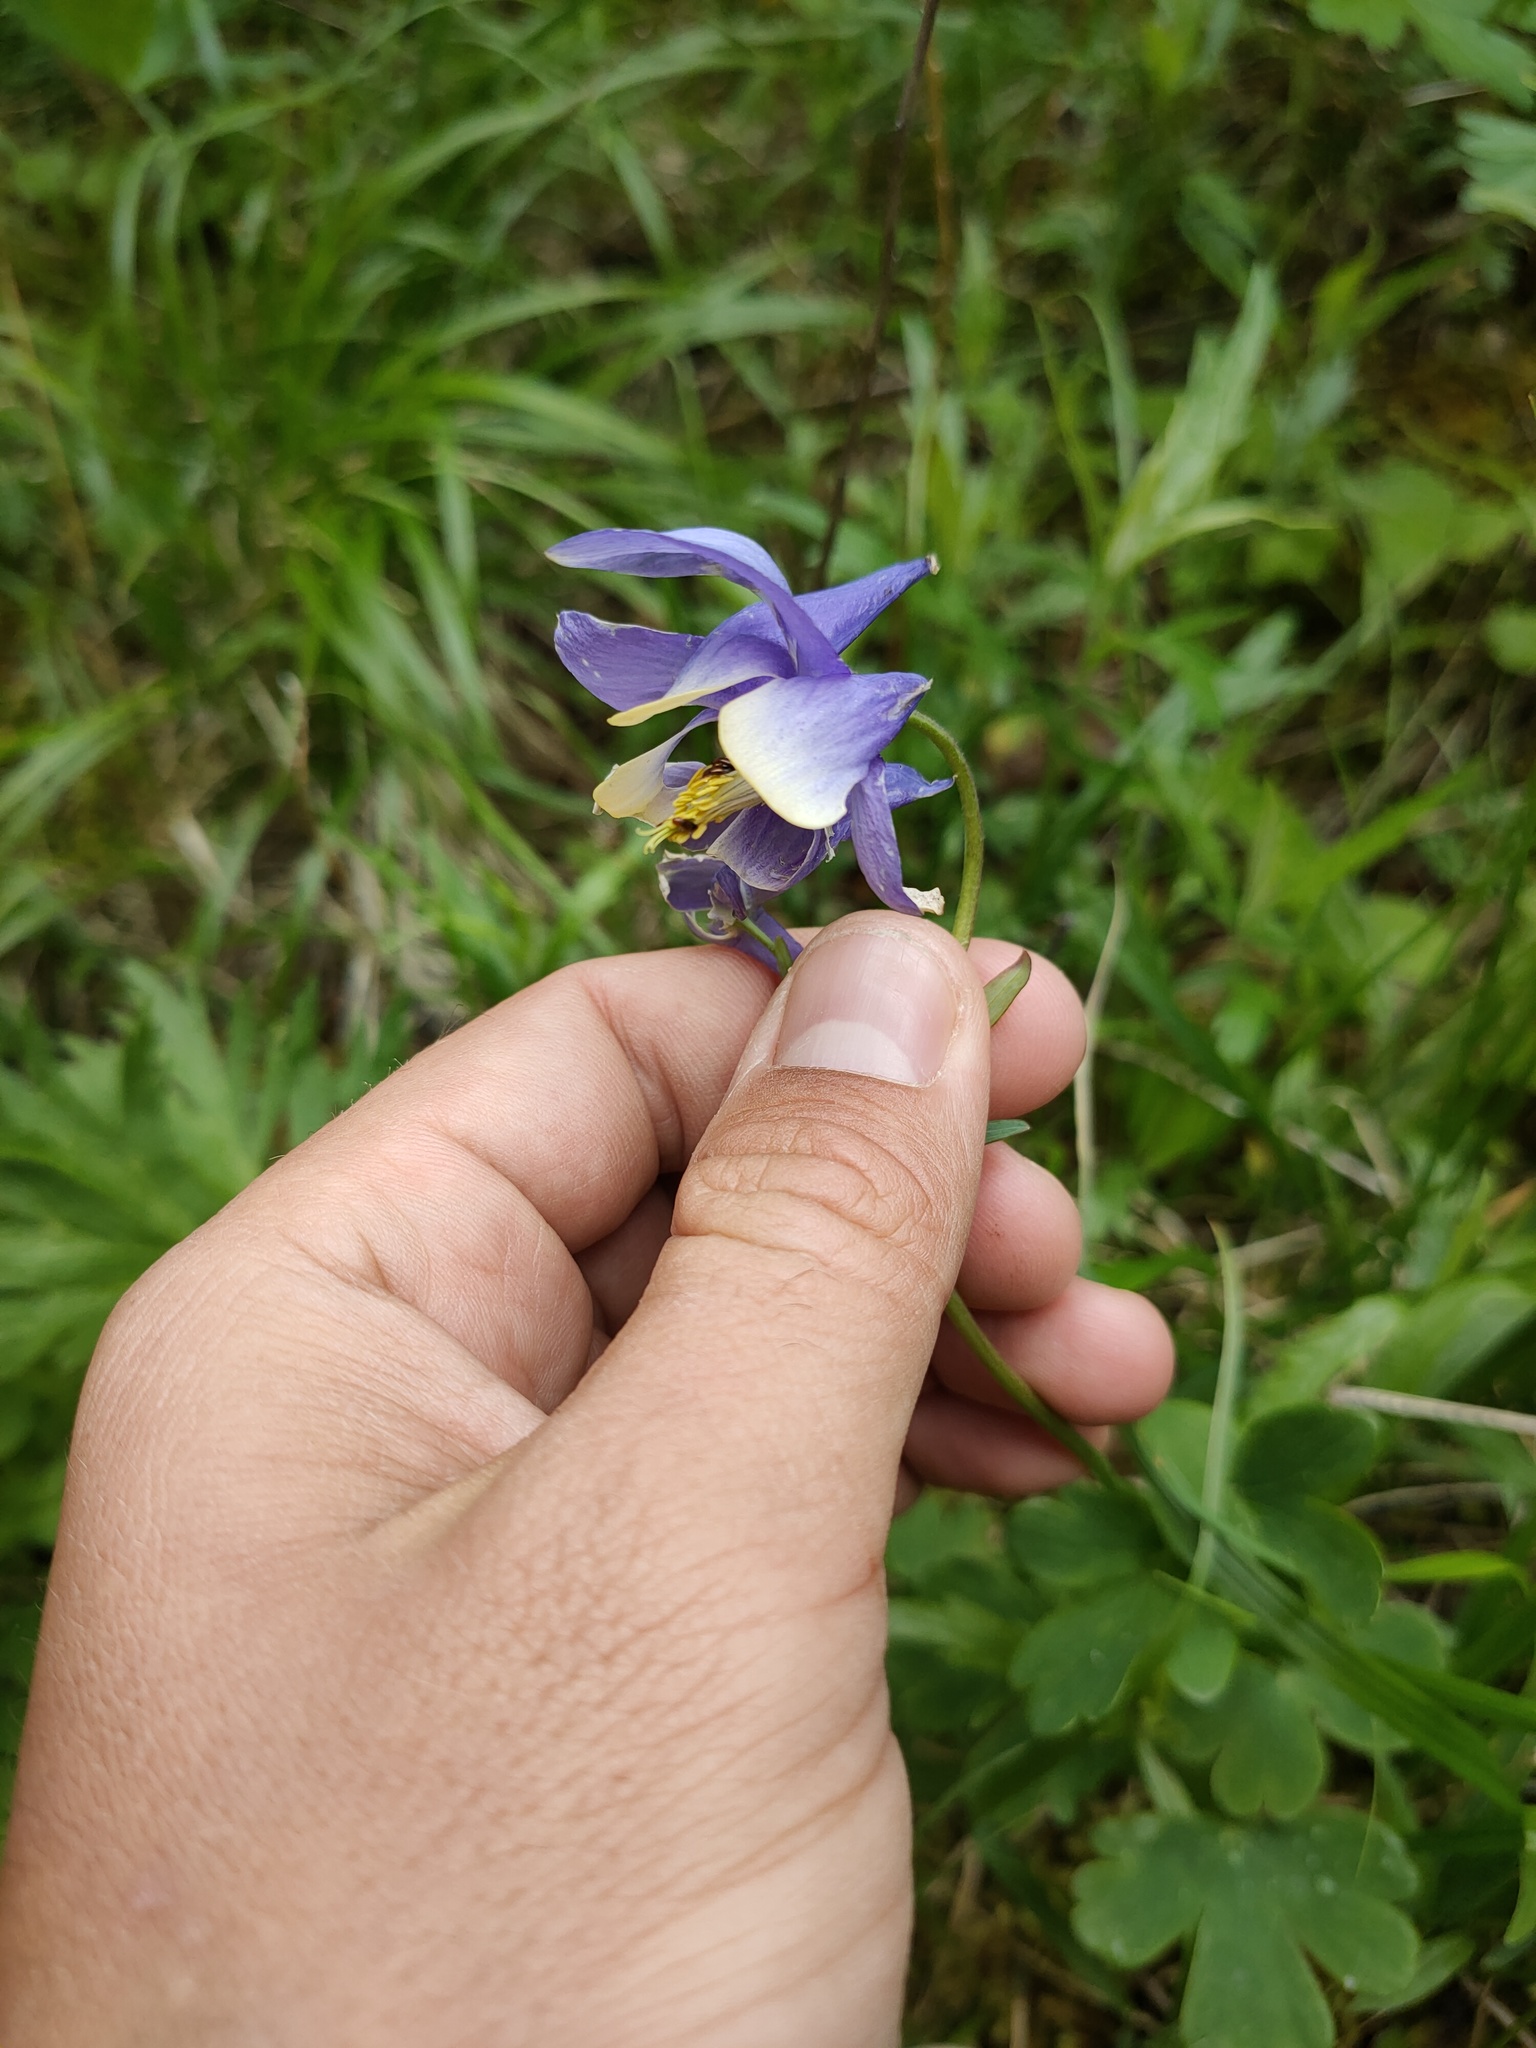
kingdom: Plantae
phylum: Tracheophyta
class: Magnoliopsida
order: Ranunculales
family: Ranunculaceae
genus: Aquilegia
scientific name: Aquilegia sibirica
